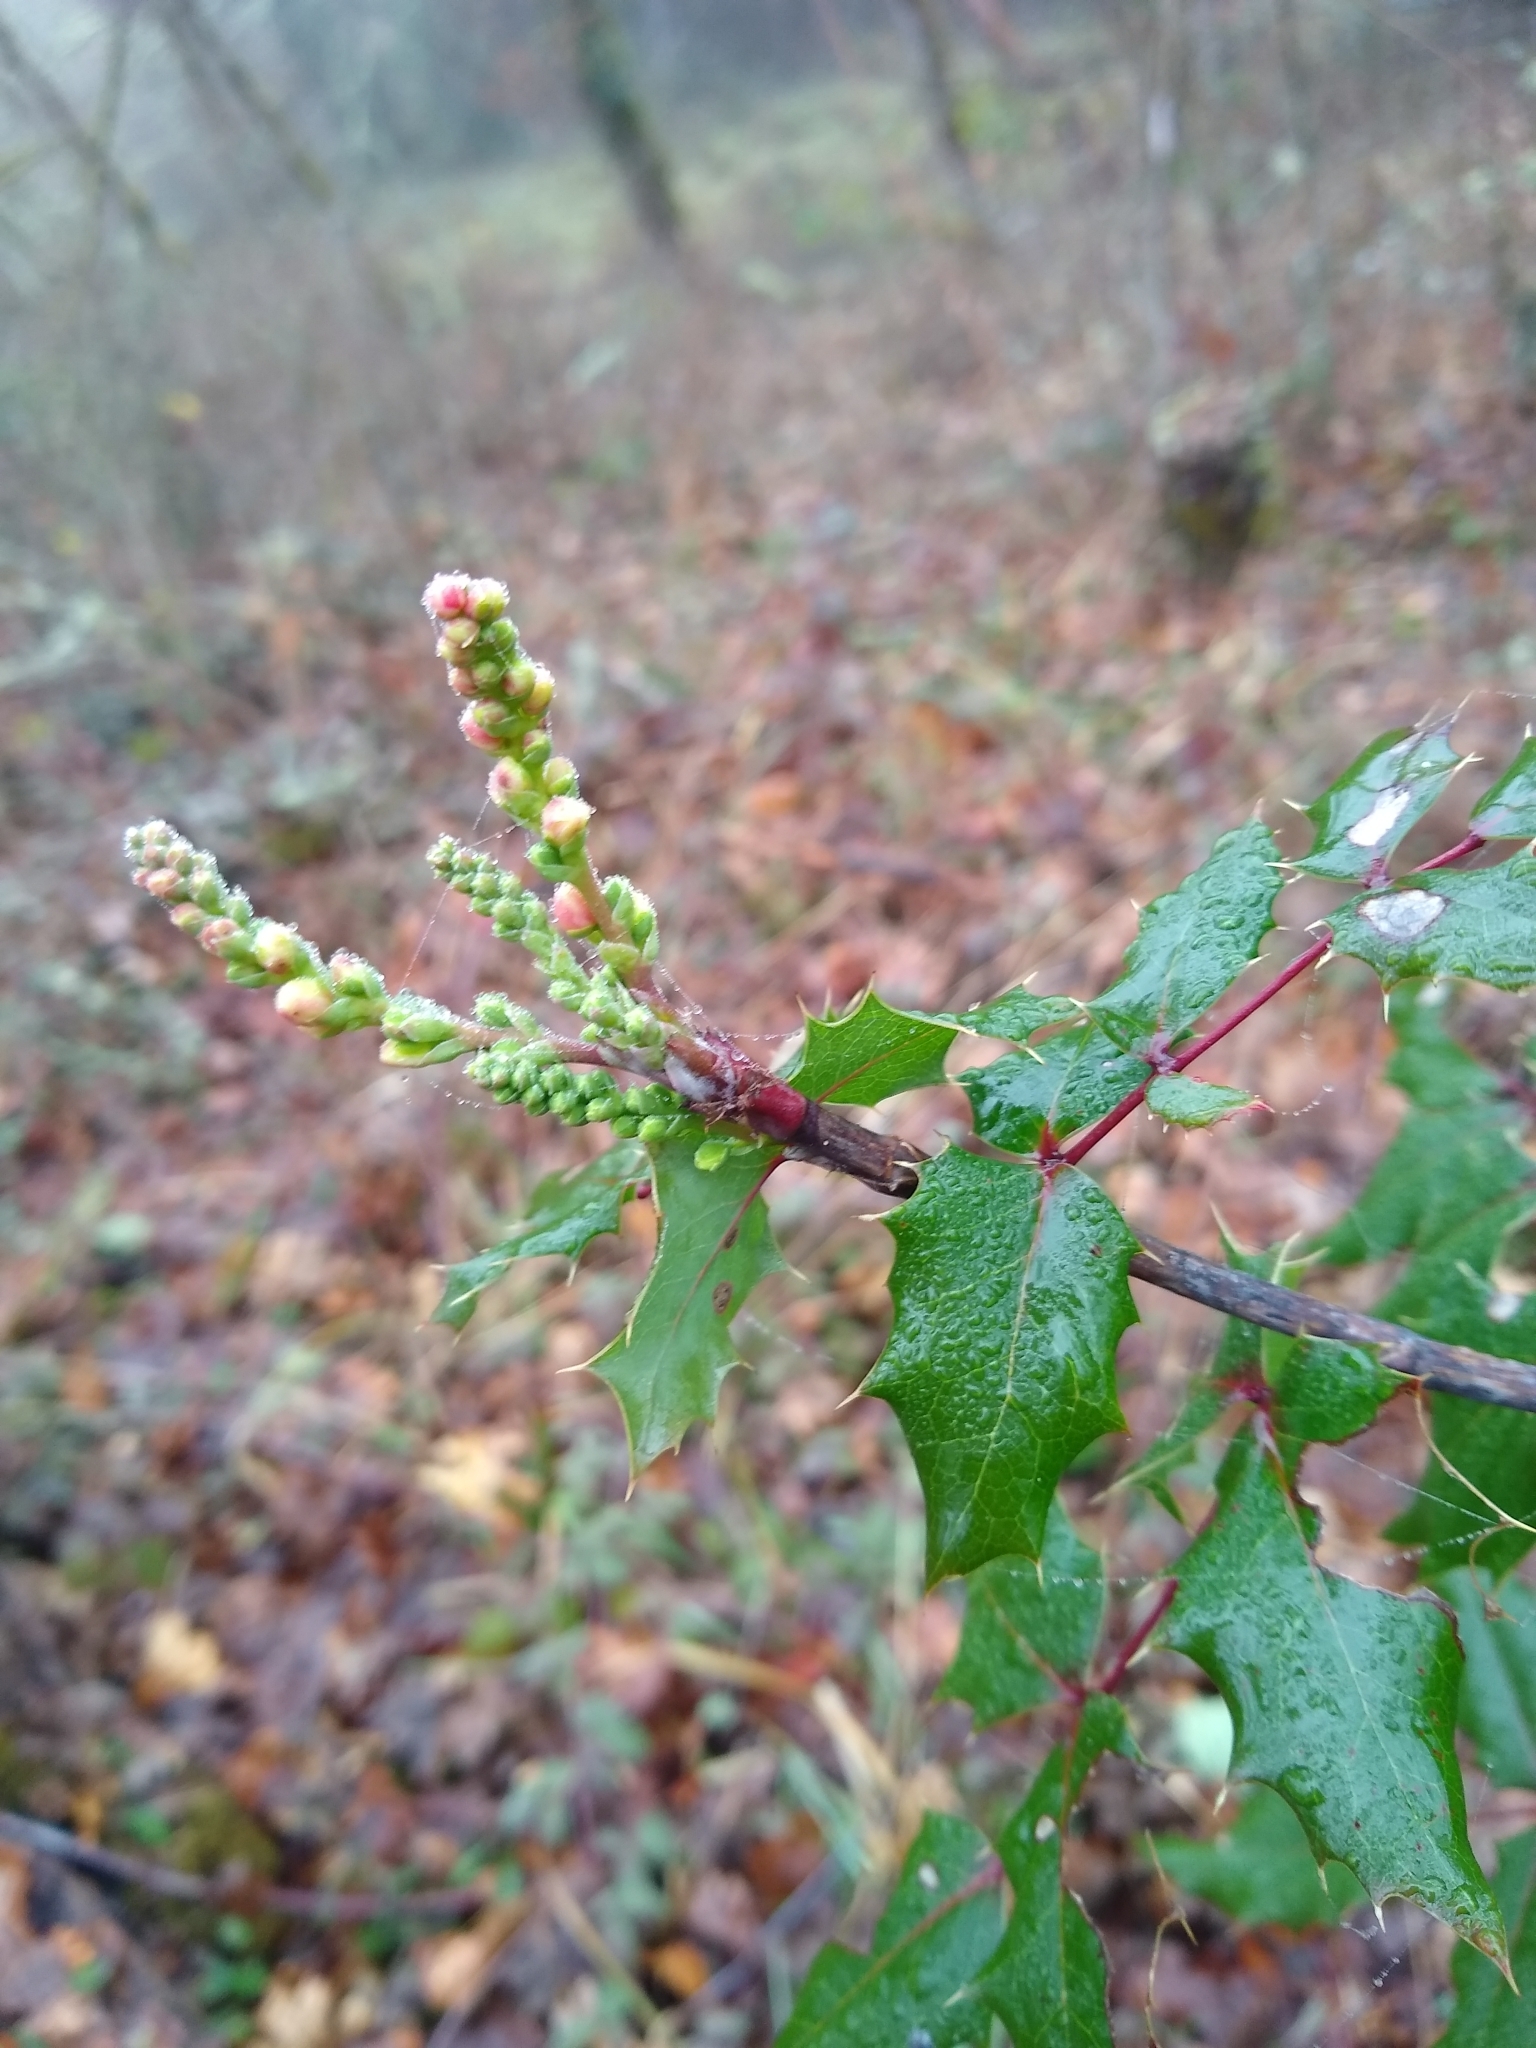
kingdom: Plantae
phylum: Tracheophyta
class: Magnoliopsida
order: Ranunculales
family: Berberidaceae
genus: Mahonia
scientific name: Mahonia aquifolium
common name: Oregon-grape
